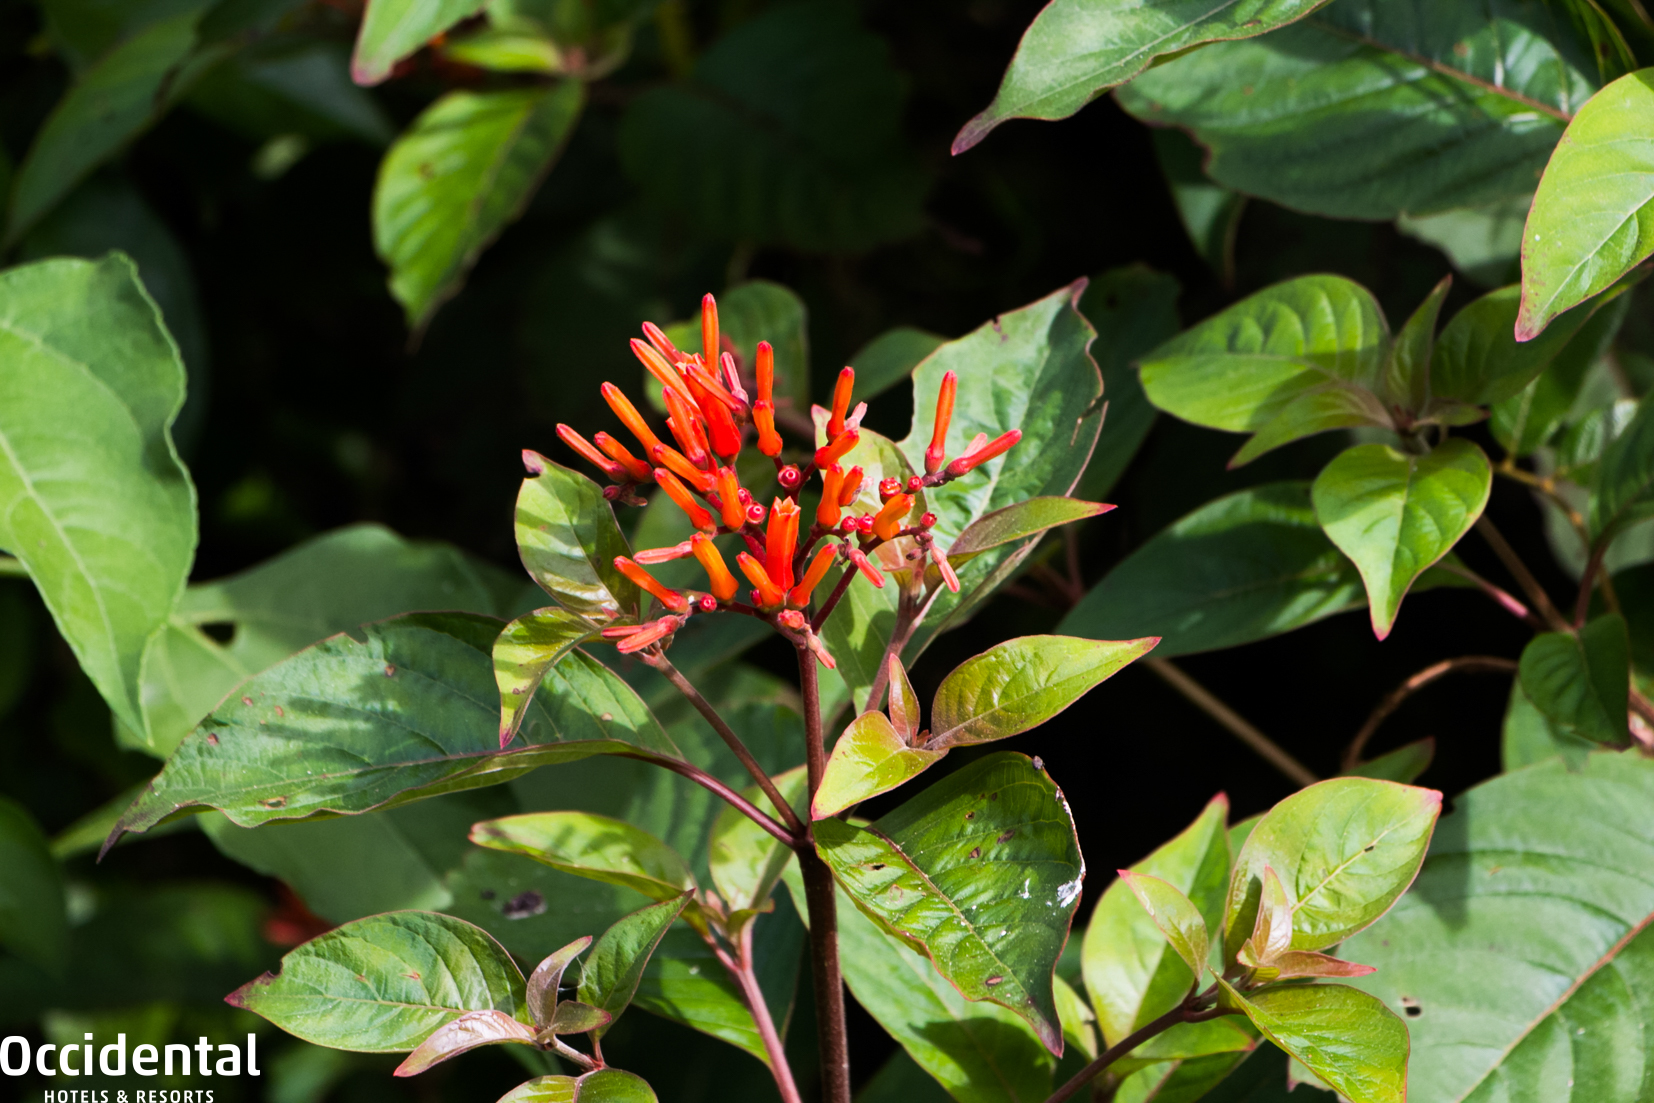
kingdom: Plantae
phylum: Tracheophyta
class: Magnoliopsida
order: Gentianales
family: Rubiaceae
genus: Hamelia
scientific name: Hamelia patens
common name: Redhead
